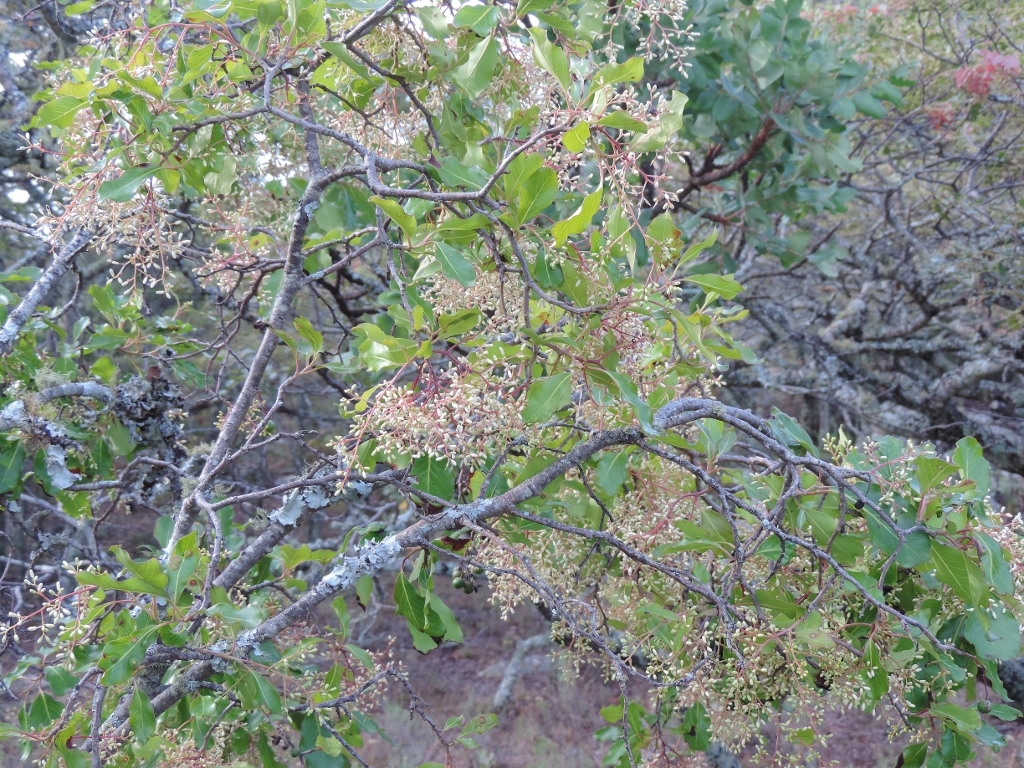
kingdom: Plantae
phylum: Tracheophyta
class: Magnoliopsida
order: Metteniusales
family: Metteniusaceae
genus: Apodytes
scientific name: Apodytes dimidiata
